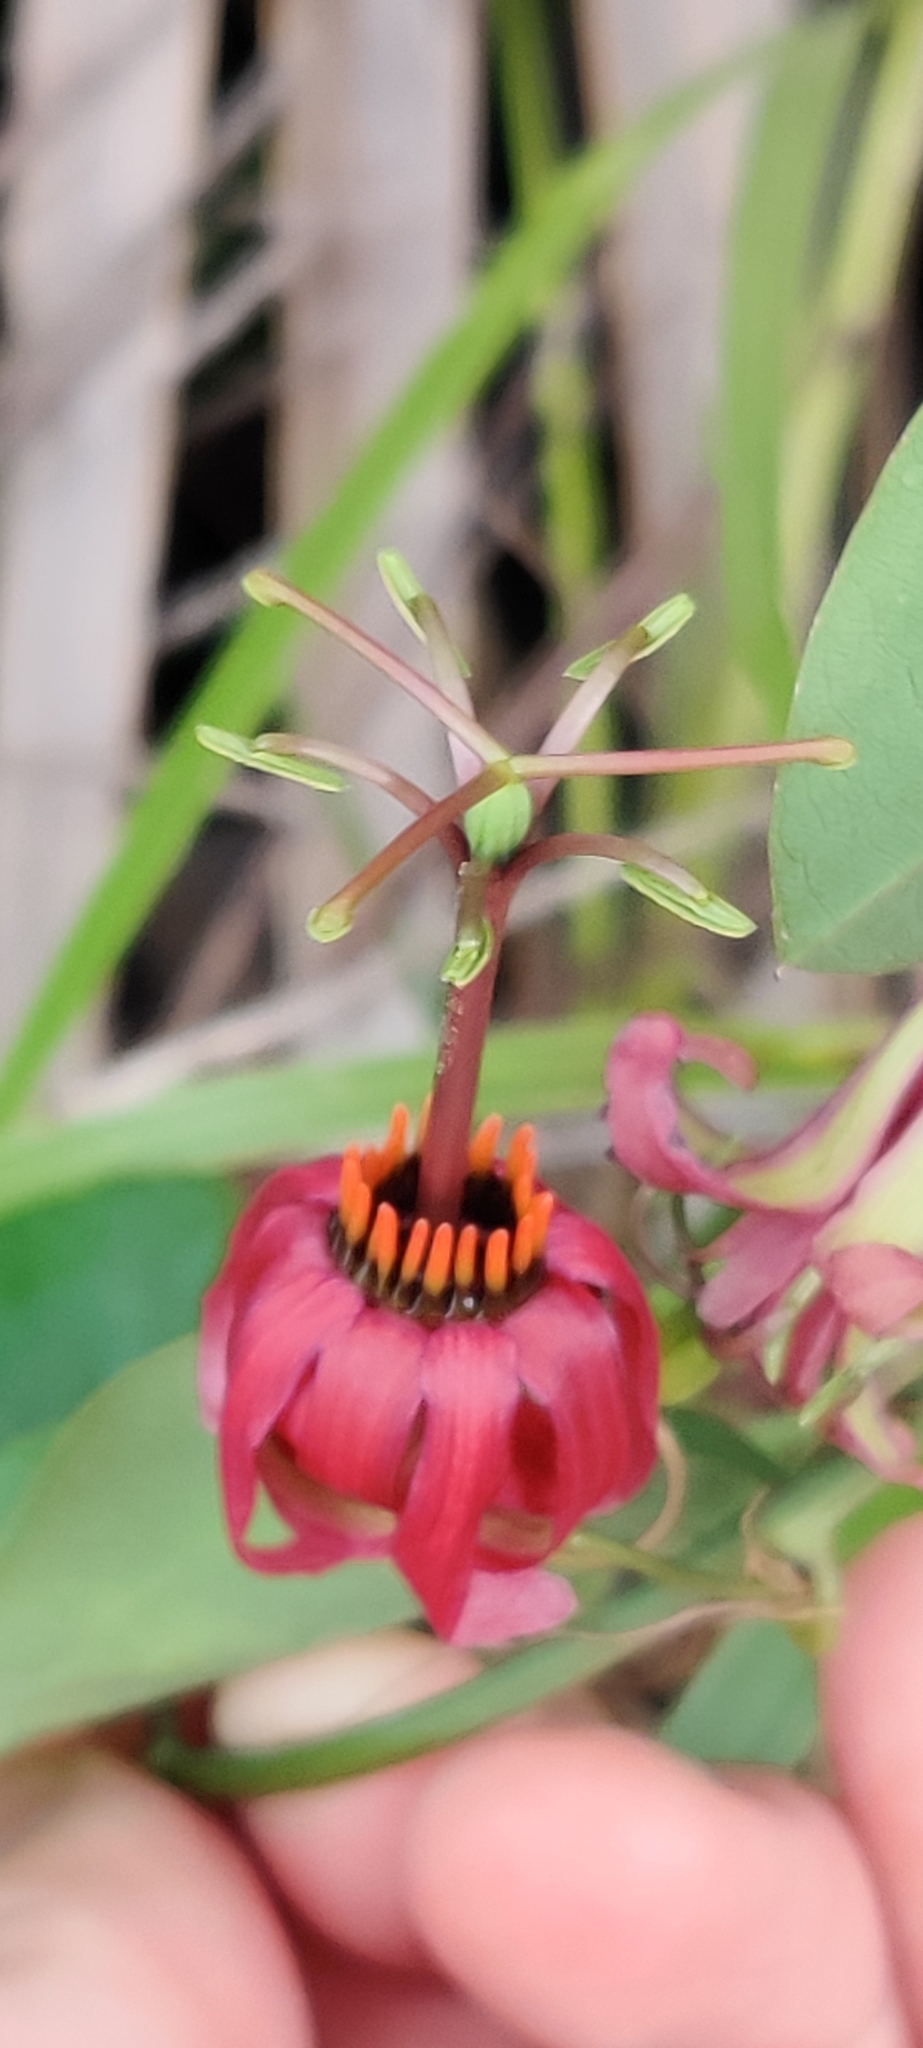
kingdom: Plantae
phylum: Tracheophyta
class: Magnoliopsida
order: Malpighiales
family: Passifloraceae
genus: Passiflora
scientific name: Passiflora cupraea
